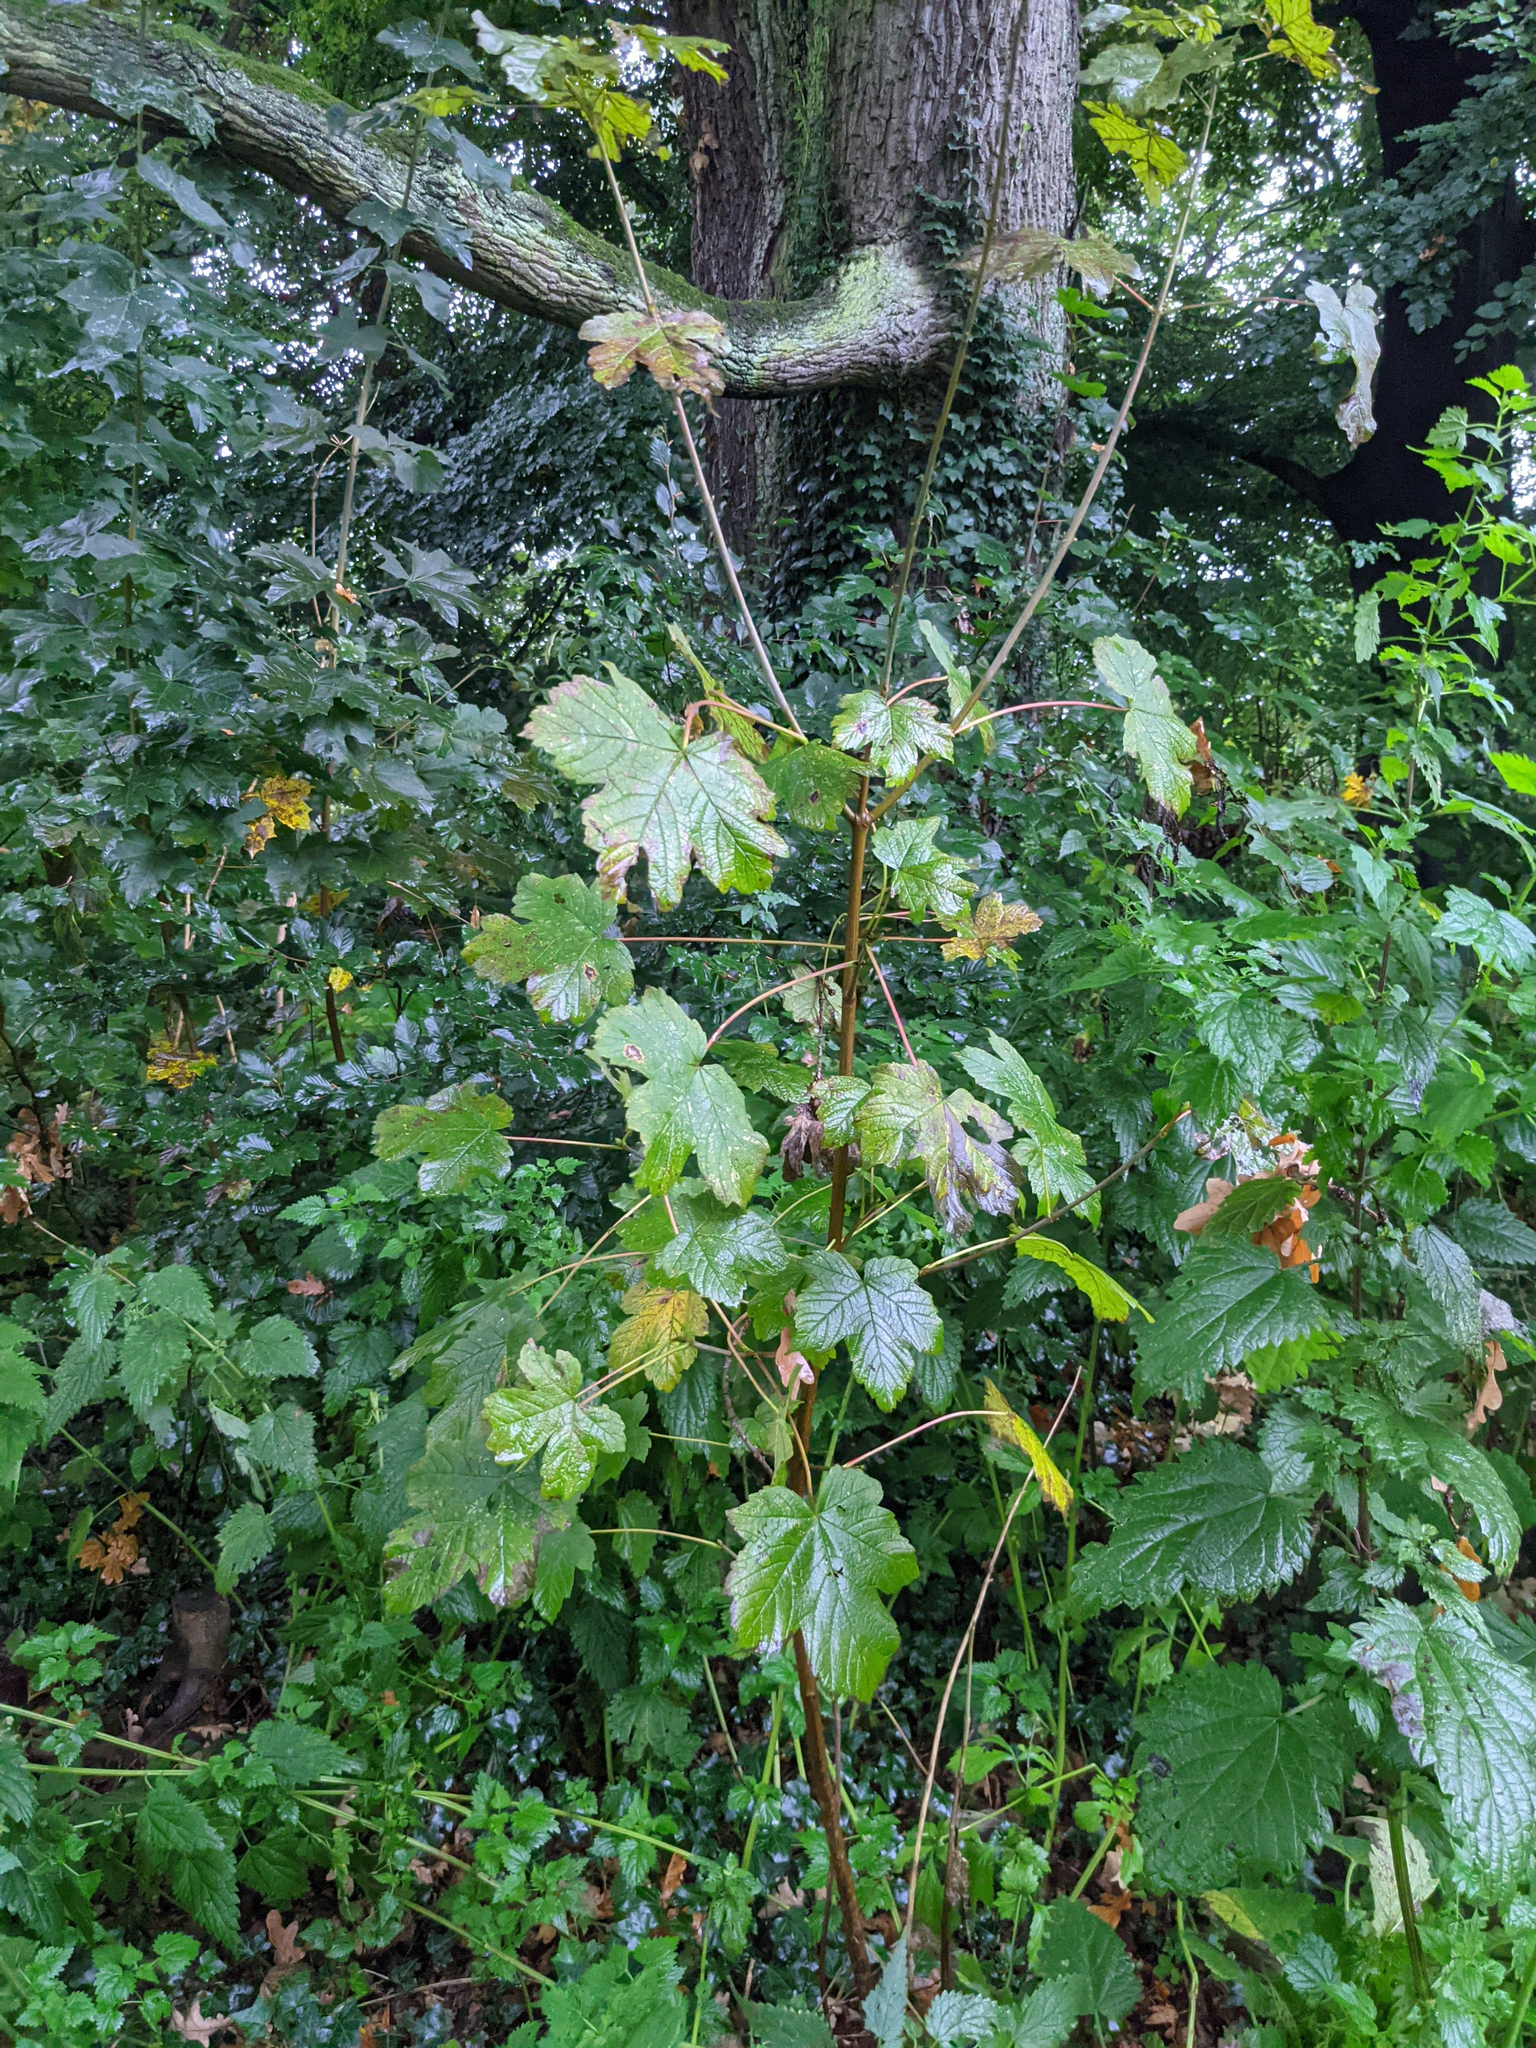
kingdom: Plantae
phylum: Tracheophyta
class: Magnoliopsida
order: Sapindales
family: Sapindaceae
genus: Acer
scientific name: Acer pseudoplatanus
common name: Sycamore
